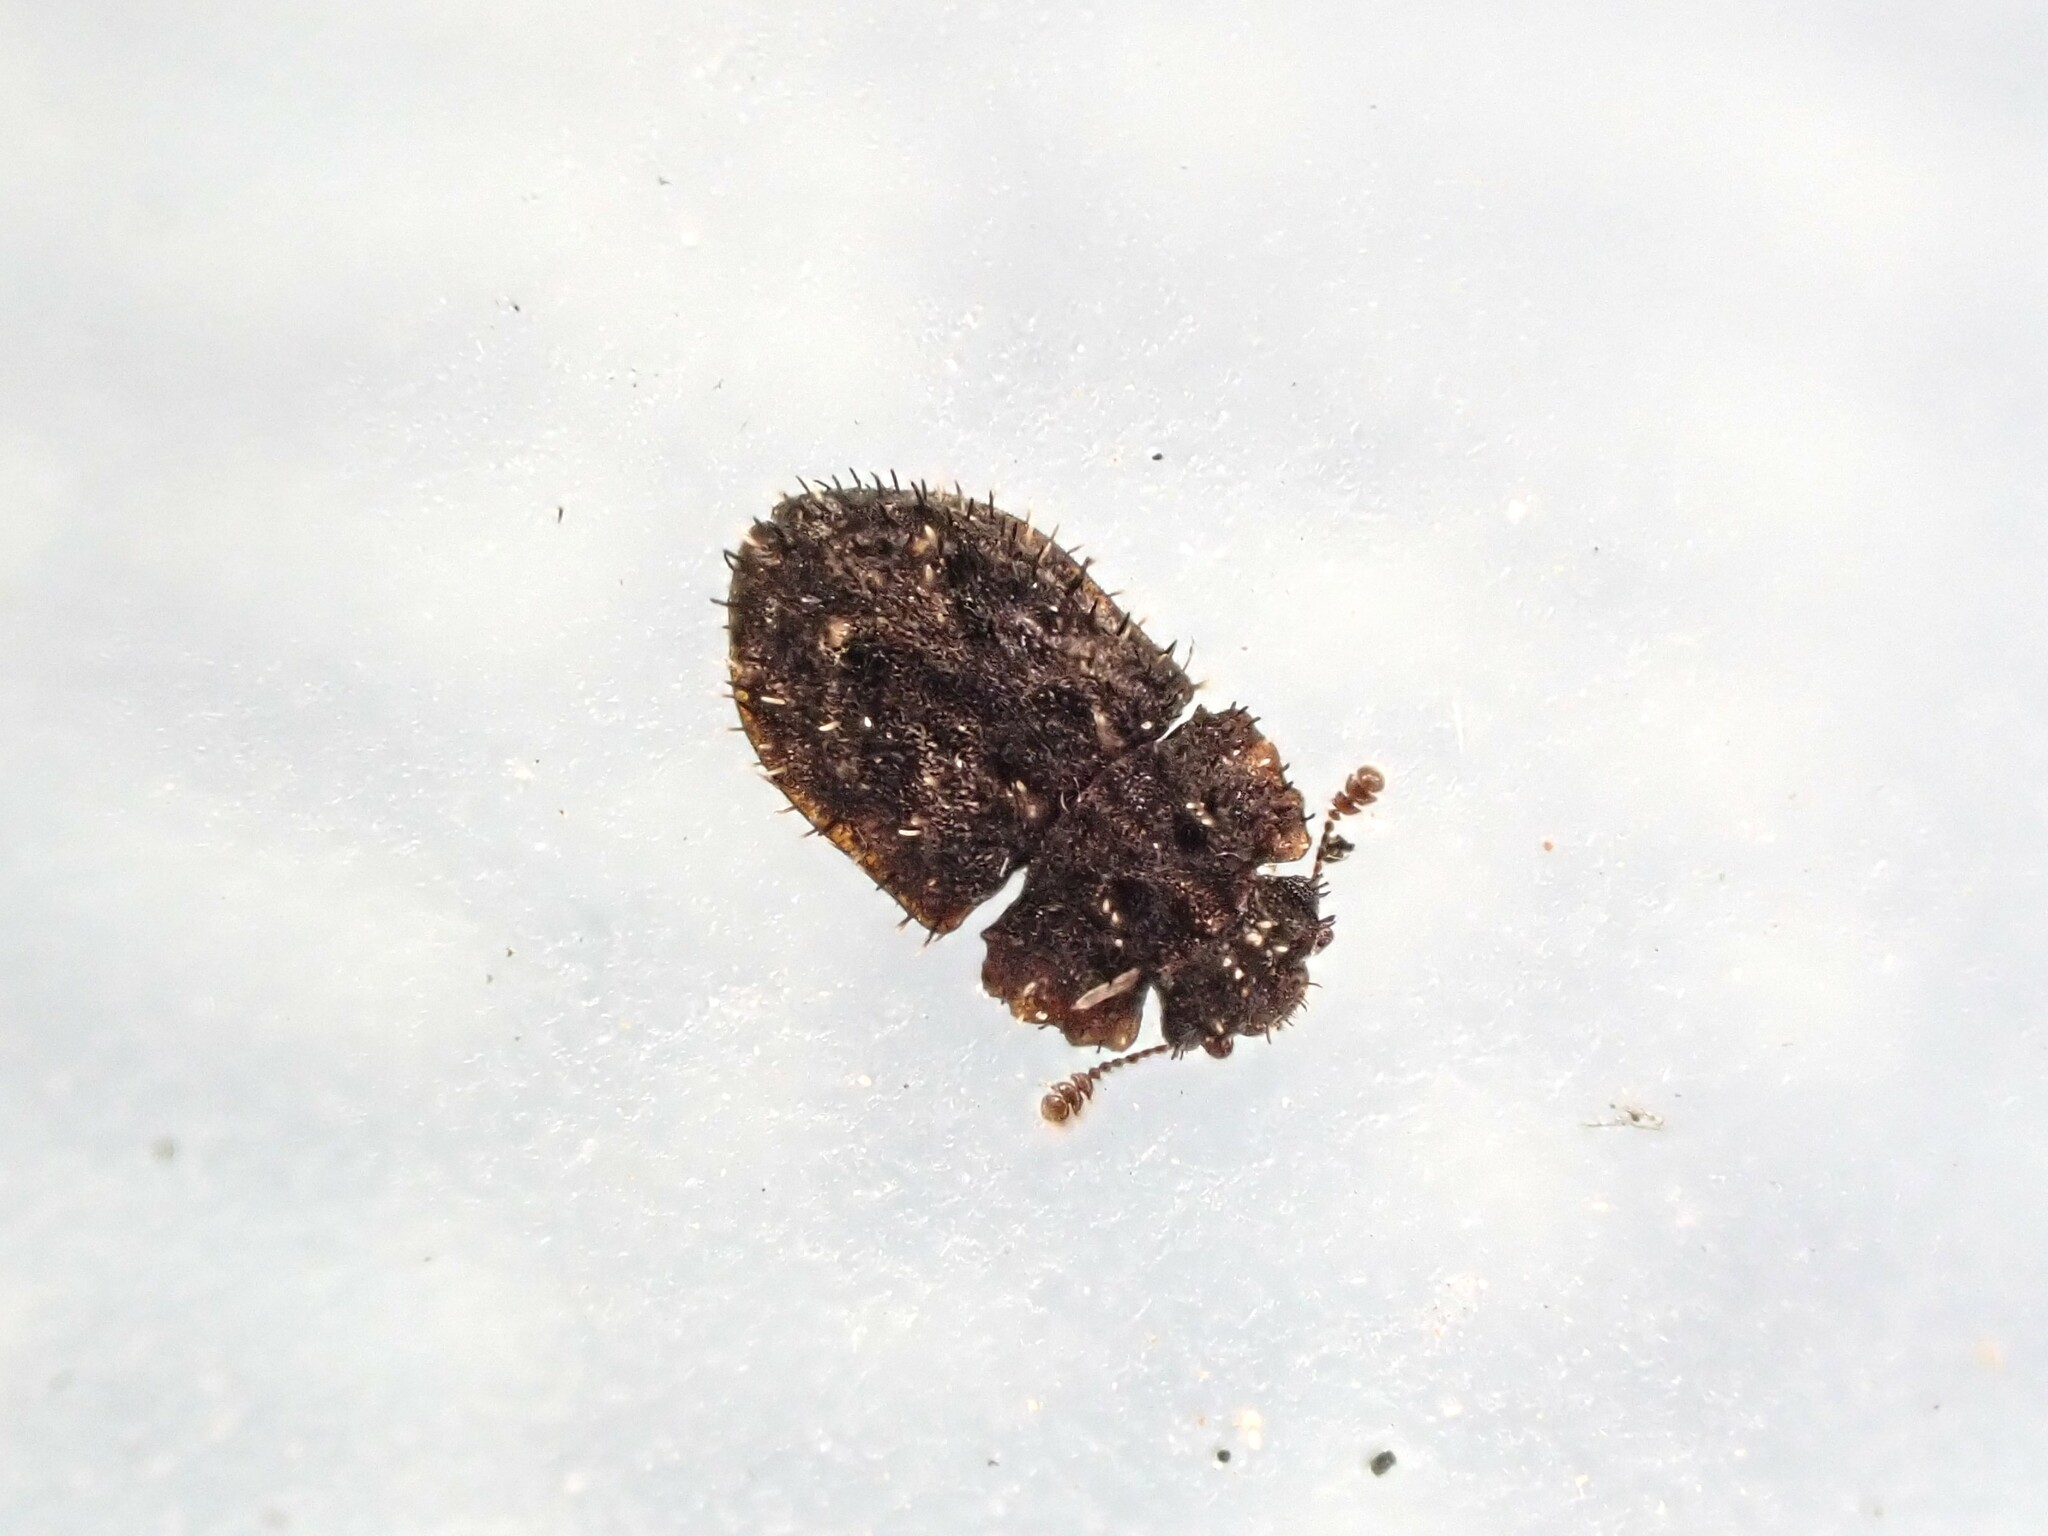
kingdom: Animalia
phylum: Arthropoda
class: Insecta
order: Coleoptera
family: Nitidulidae
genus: Hisparonia
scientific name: Hisparonia
